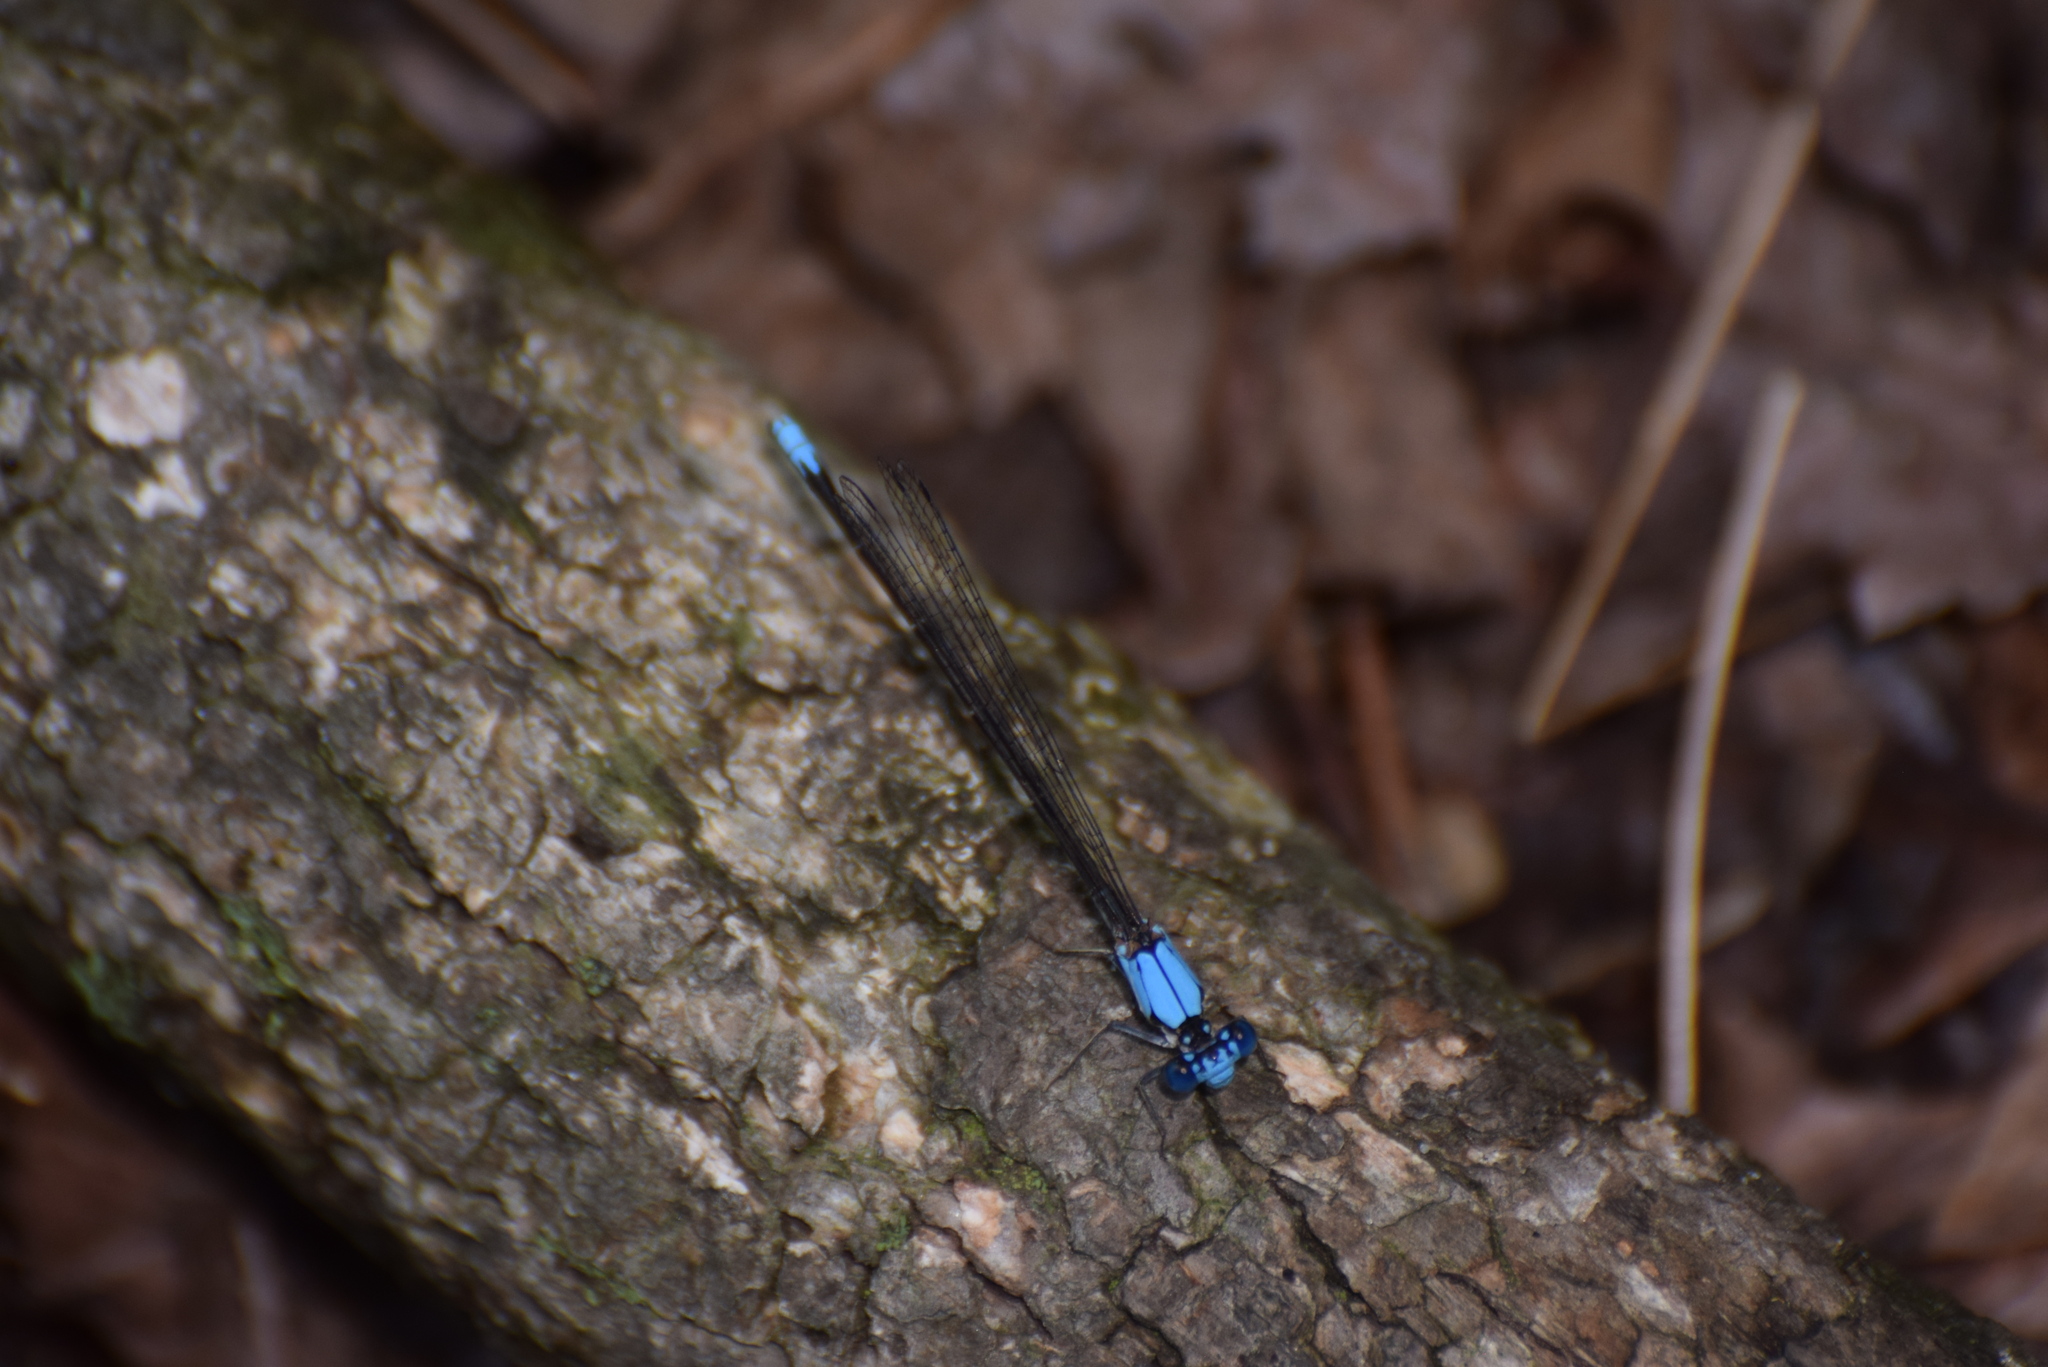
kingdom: Animalia
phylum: Arthropoda
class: Insecta
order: Odonata
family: Coenagrionidae
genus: Argia
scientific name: Argia apicalis
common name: Blue-fronted dancer
